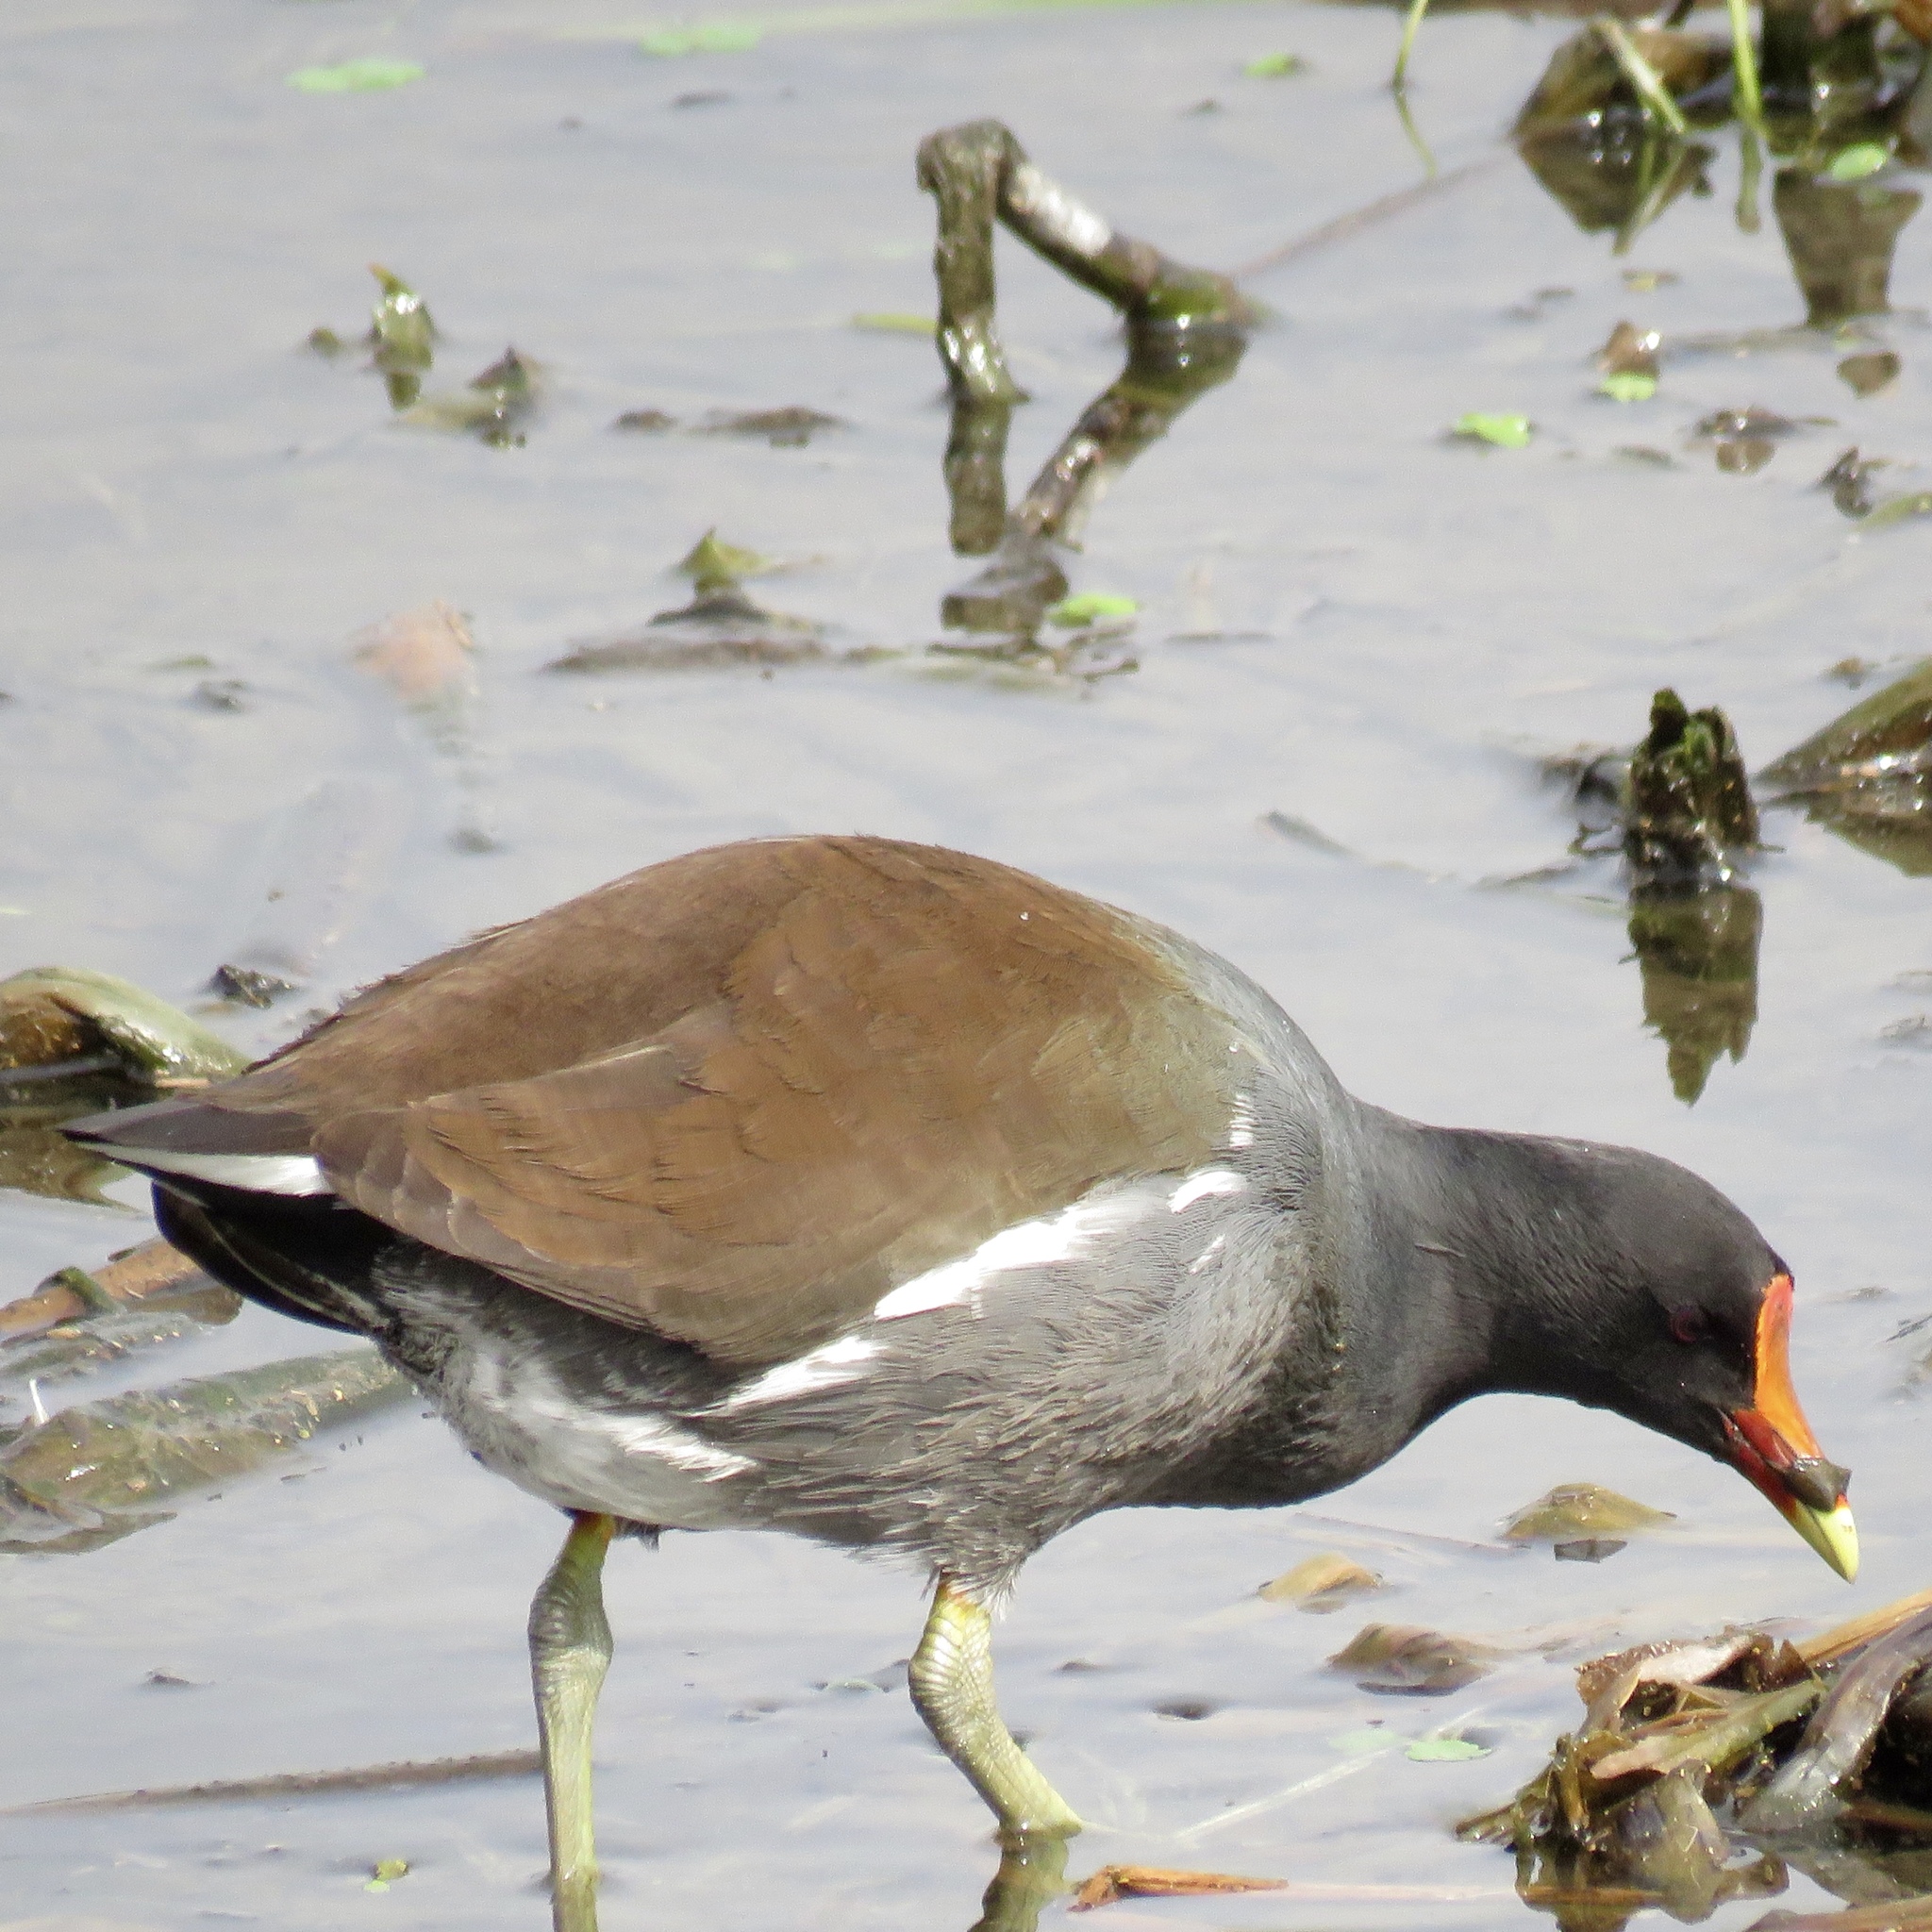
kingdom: Animalia
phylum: Chordata
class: Aves
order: Gruiformes
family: Rallidae
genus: Gallinula
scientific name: Gallinula chloropus
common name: Common moorhen
